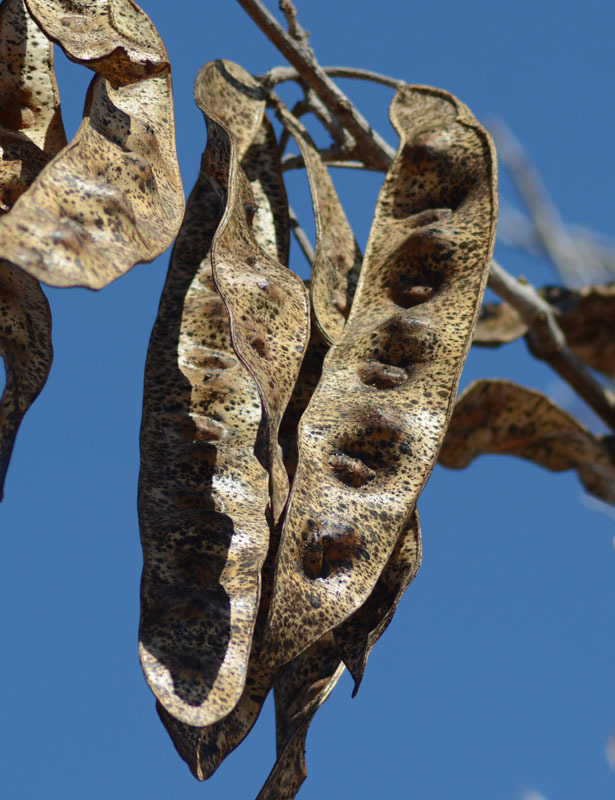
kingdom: Plantae
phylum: Tracheophyta
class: Magnoliopsida
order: Fabales
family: Fabaceae
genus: Albizia
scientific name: Albizia lebbeck
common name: Woman's tongue
